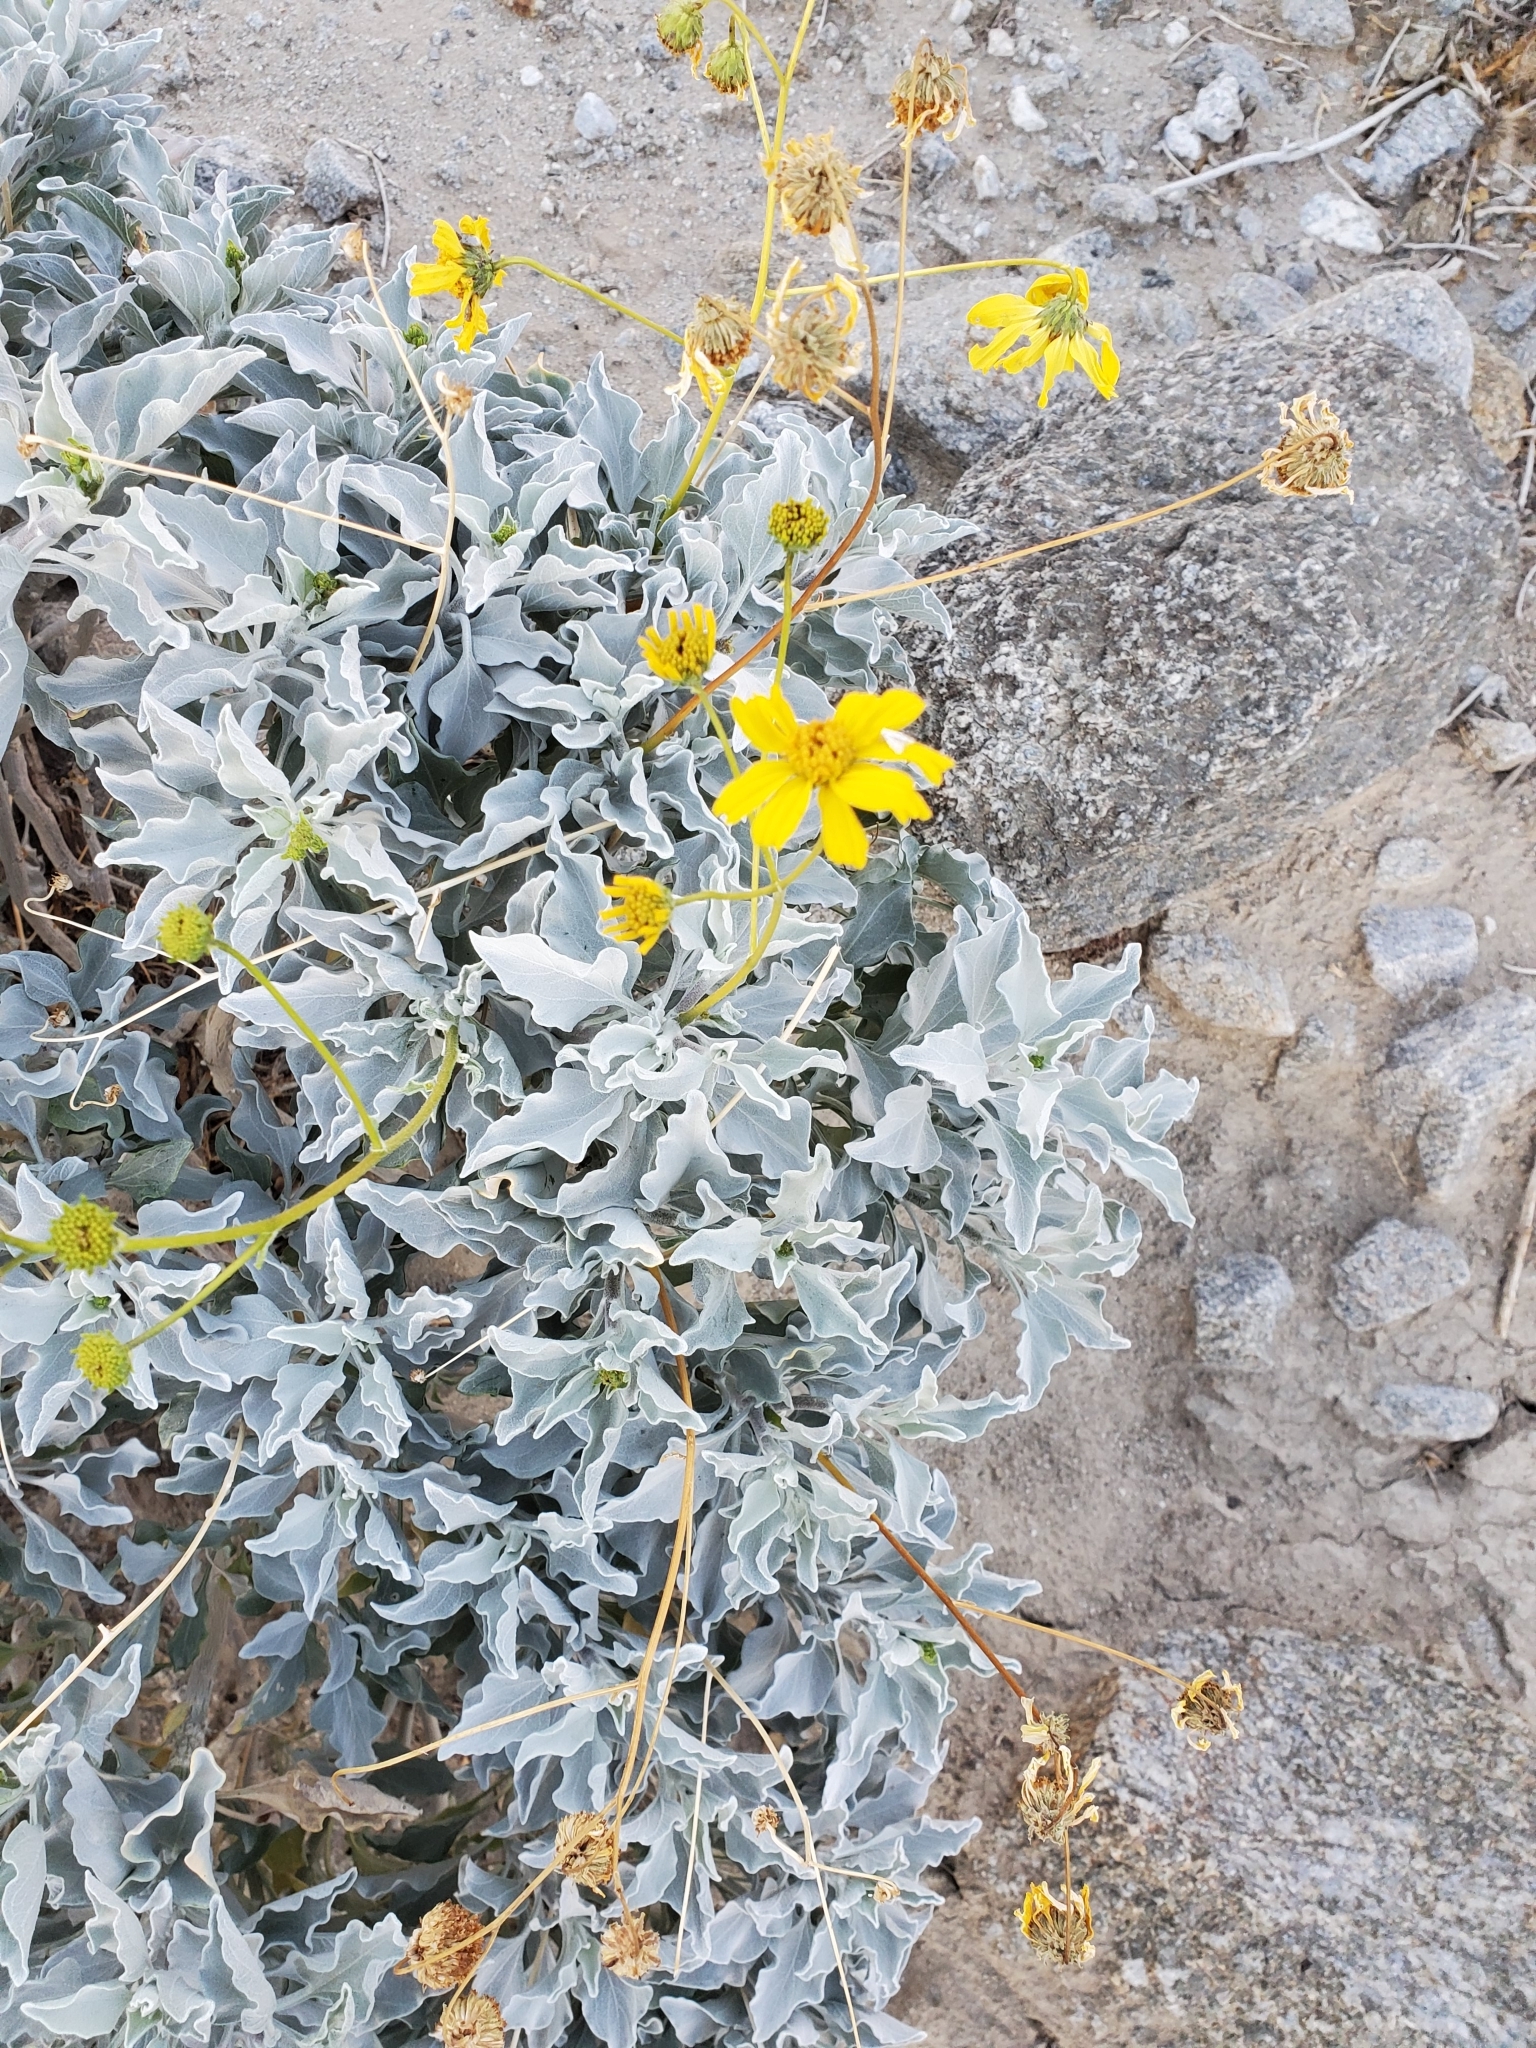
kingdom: Plantae
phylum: Tracheophyta
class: Magnoliopsida
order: Asterales
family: Asteraceae
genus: Encelia
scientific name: Encelia farinosa
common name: Brittlebush
